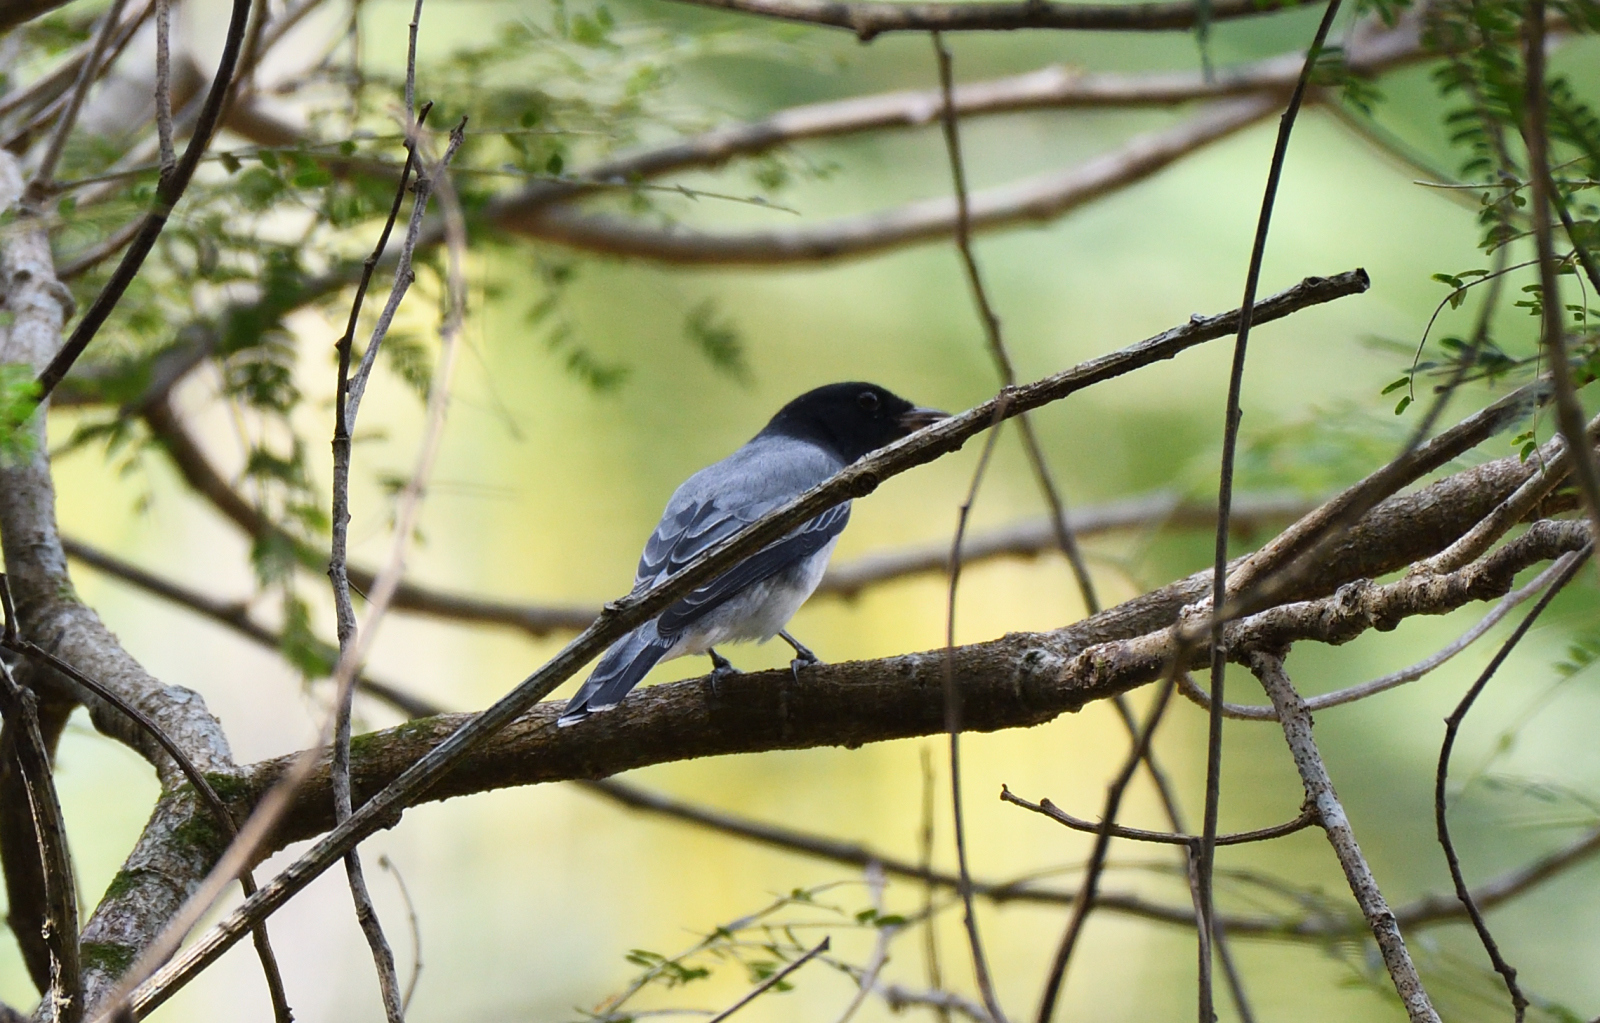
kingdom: Animalia
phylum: Chordata
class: Aves
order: Passeriformes
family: Campephagidae
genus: Coracina
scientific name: Coracina melanoptera
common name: Black-headed cuckooshrike
